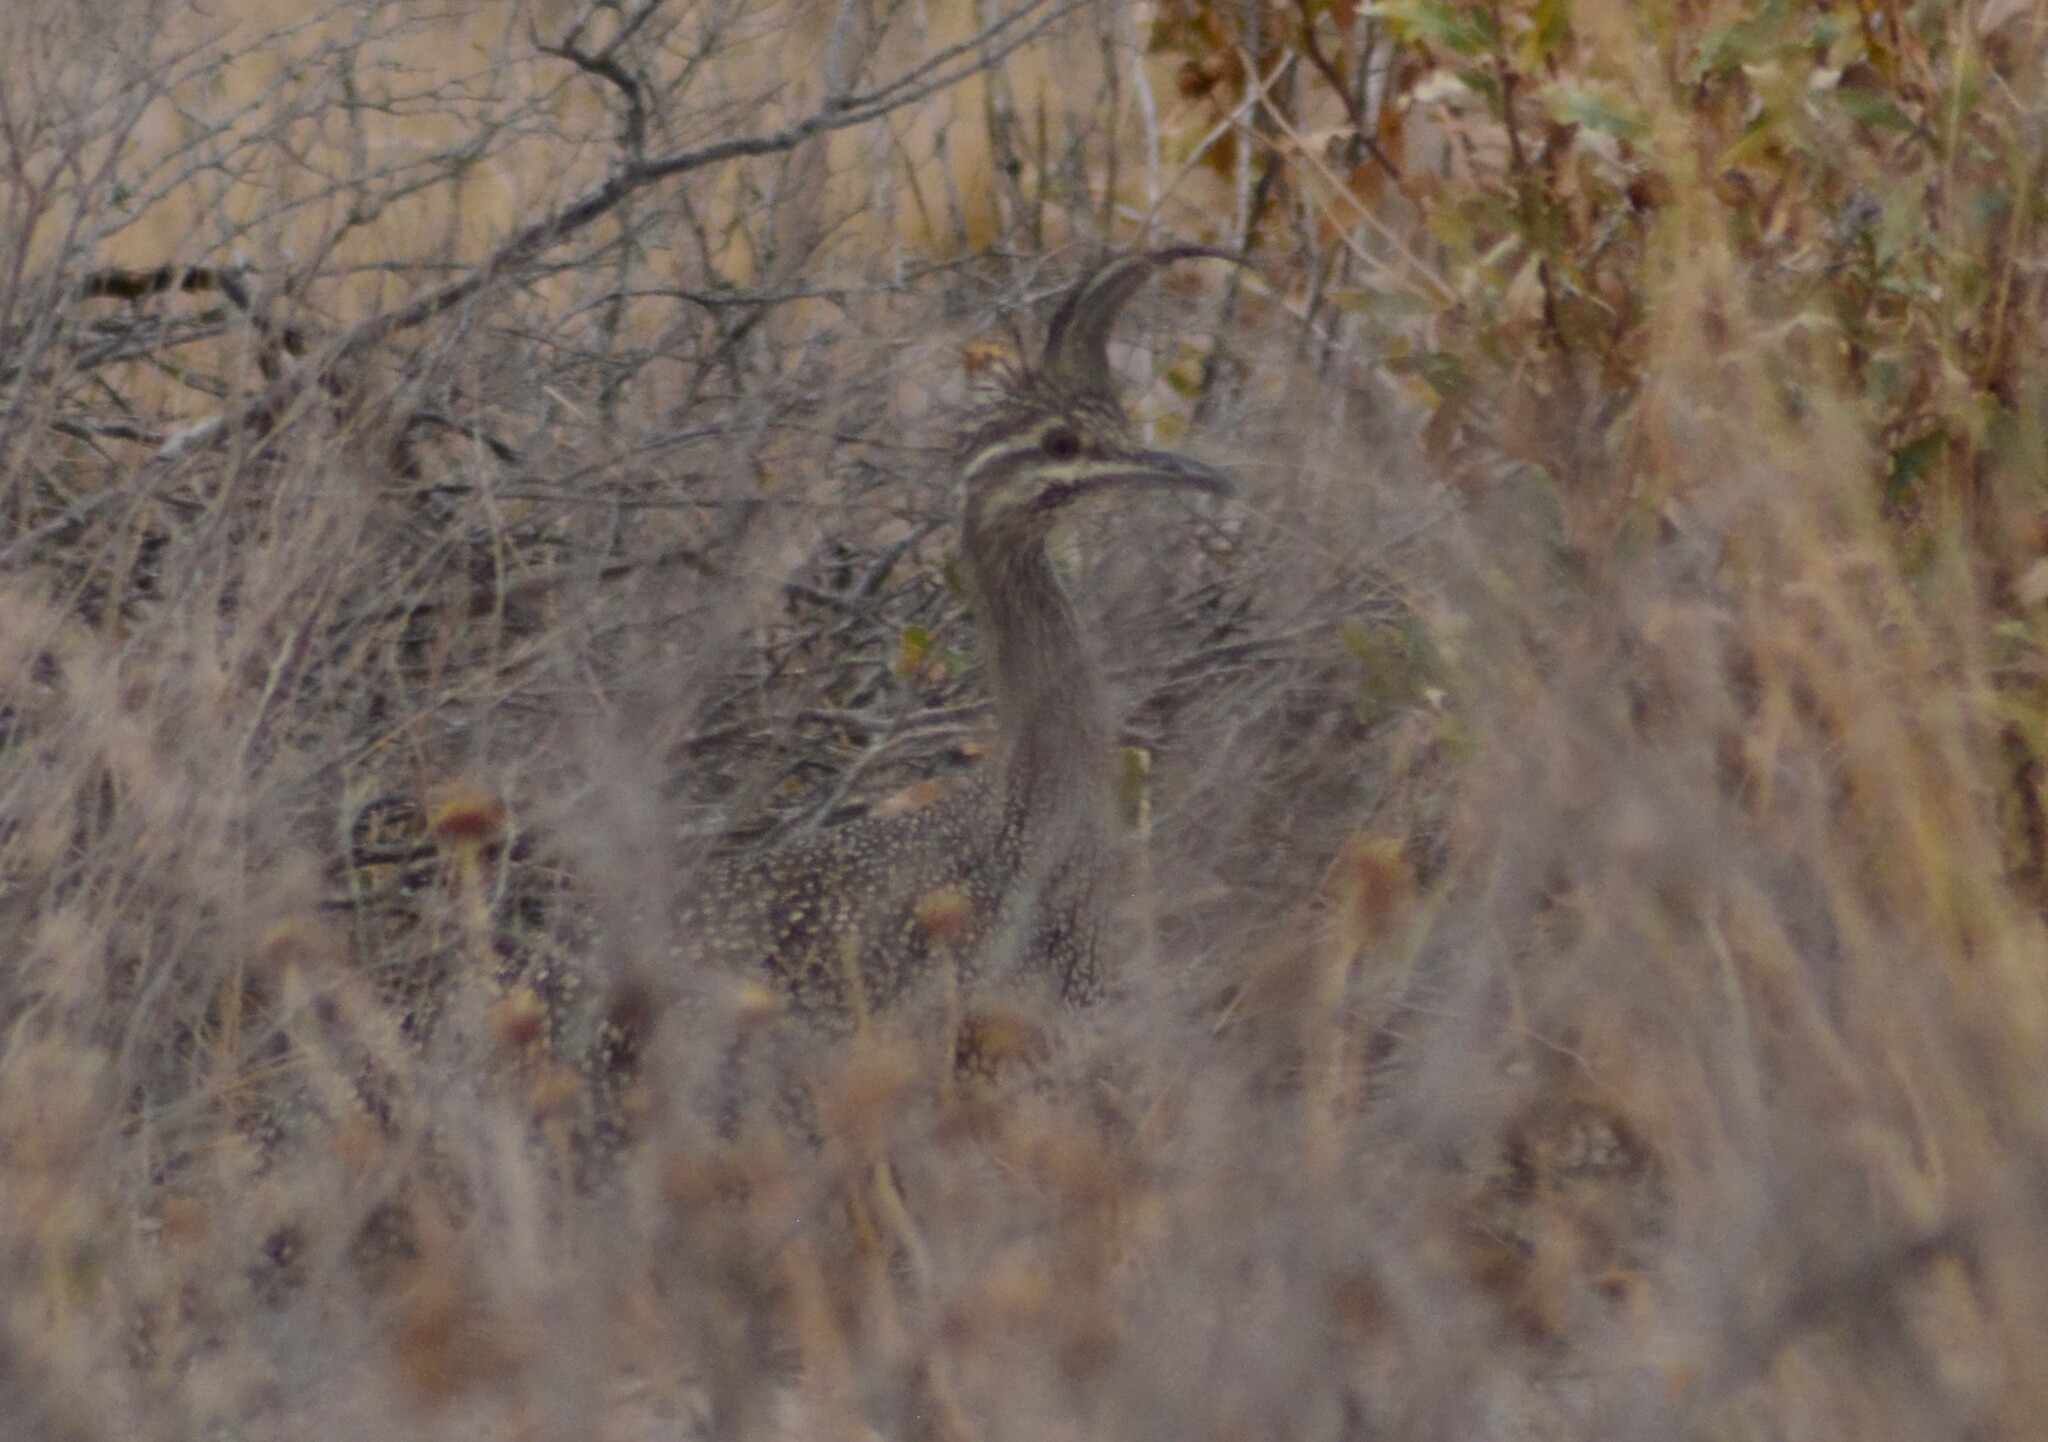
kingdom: Animalia
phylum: Chordata
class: Aves
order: Tinamiformes
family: Tinamidae
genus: Eudromia
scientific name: Eudromia elegans
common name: Elegant crested tinamou
